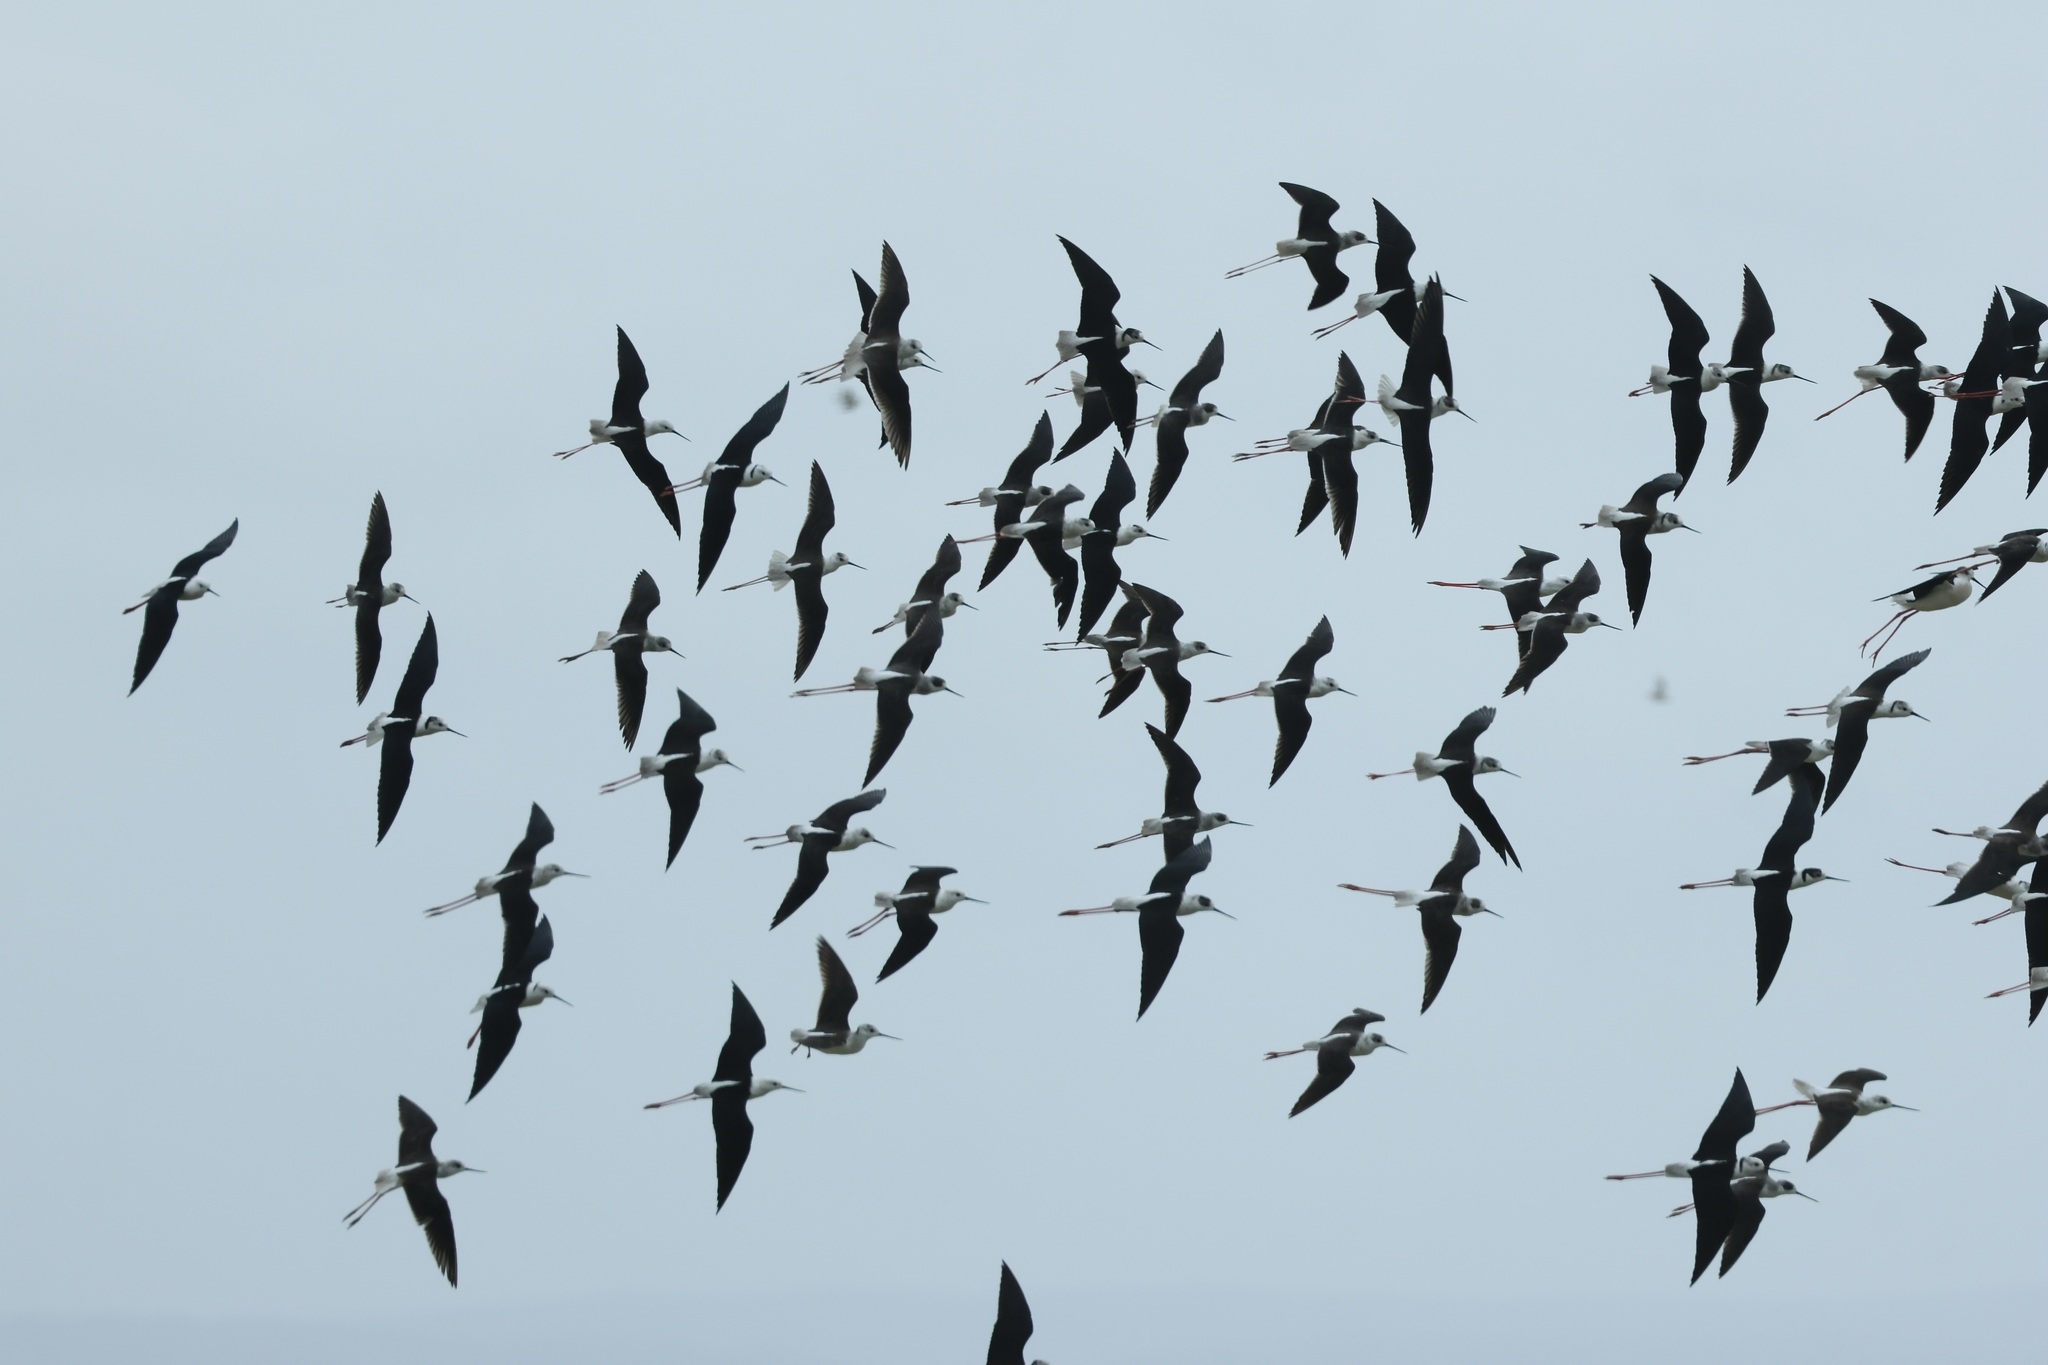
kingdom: Animalia
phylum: Chordata
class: Aves
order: Charadriiformes
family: Recurvirostridae
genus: Himantopus
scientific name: Himantopus himantopus
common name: Black-winged stilt
